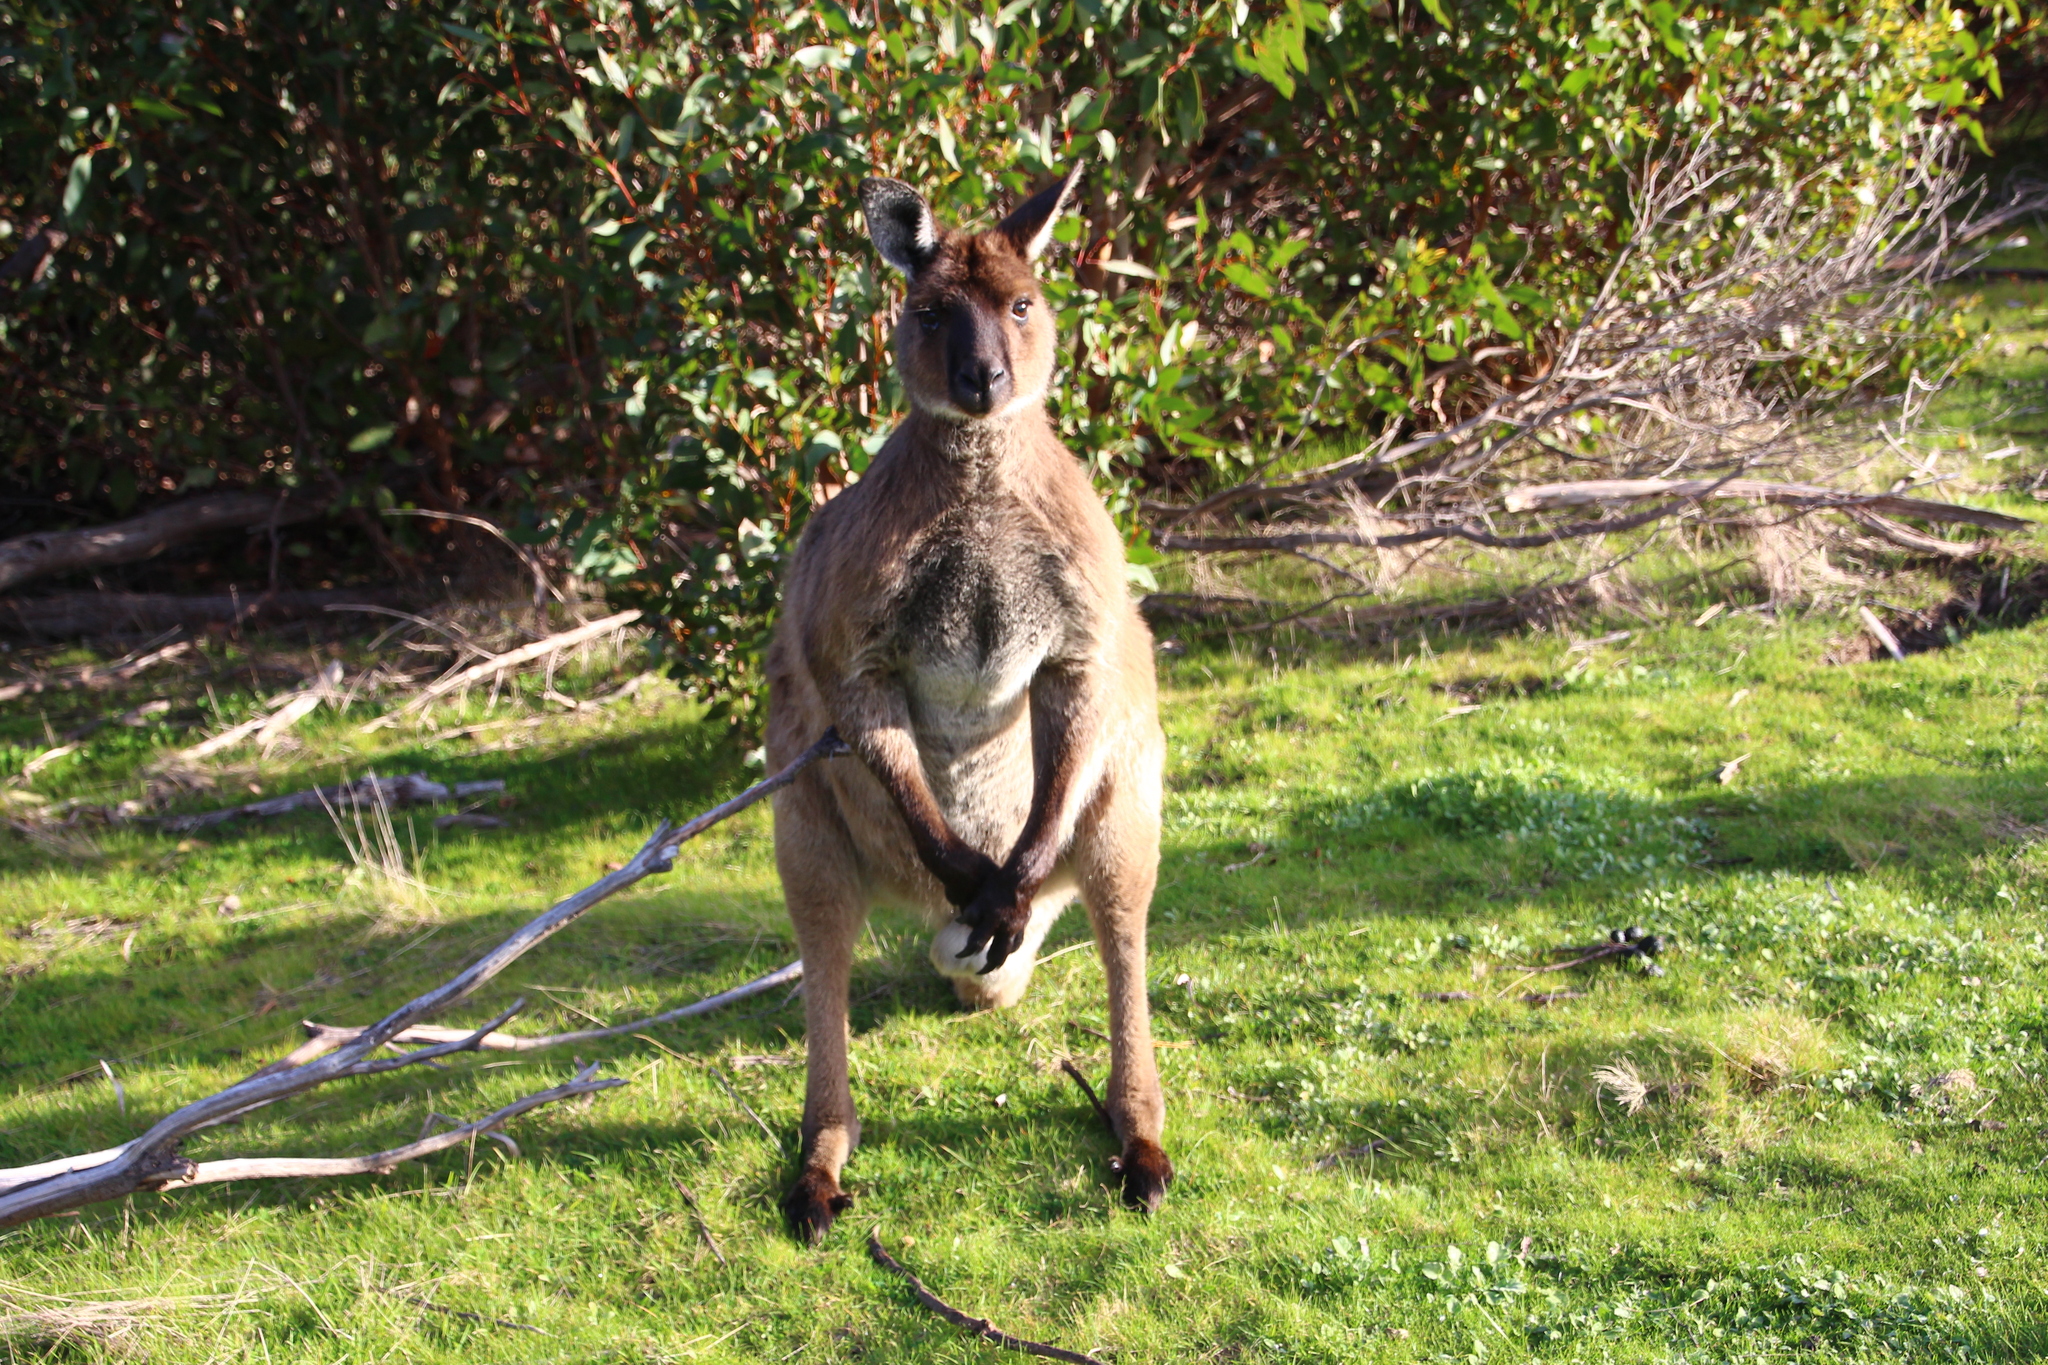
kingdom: Animalia
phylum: Chordata
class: Mammalia
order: Diprotodontia
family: Macropodidae
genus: Macropus
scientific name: Macropus fuliginosus
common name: Western grey kangaroo
